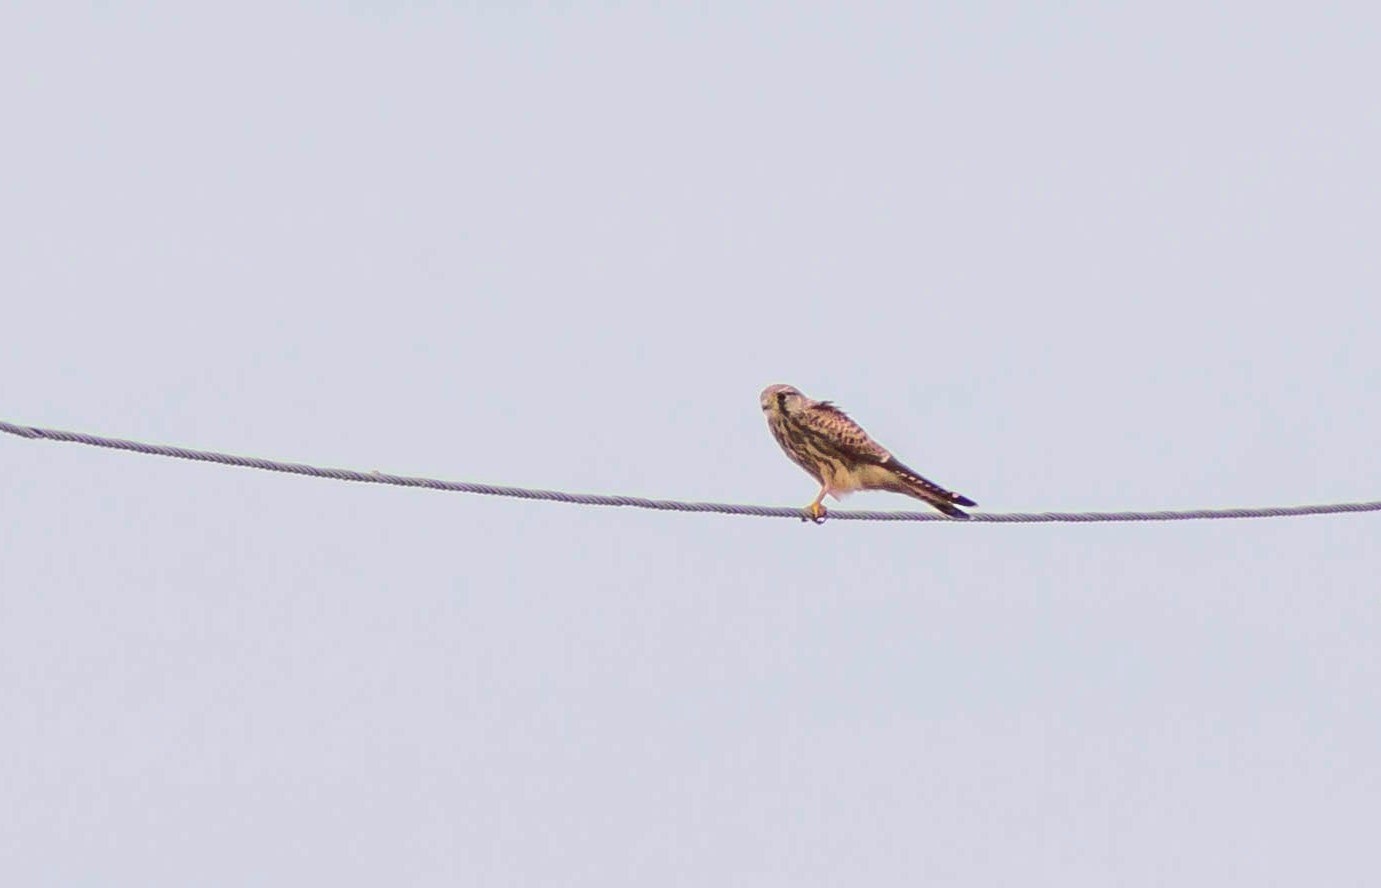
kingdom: Animalia
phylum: Chordata
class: Aves
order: Falconiformes
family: Falconidae
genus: Falco
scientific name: Falco tinnunculus
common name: Common kestrel
